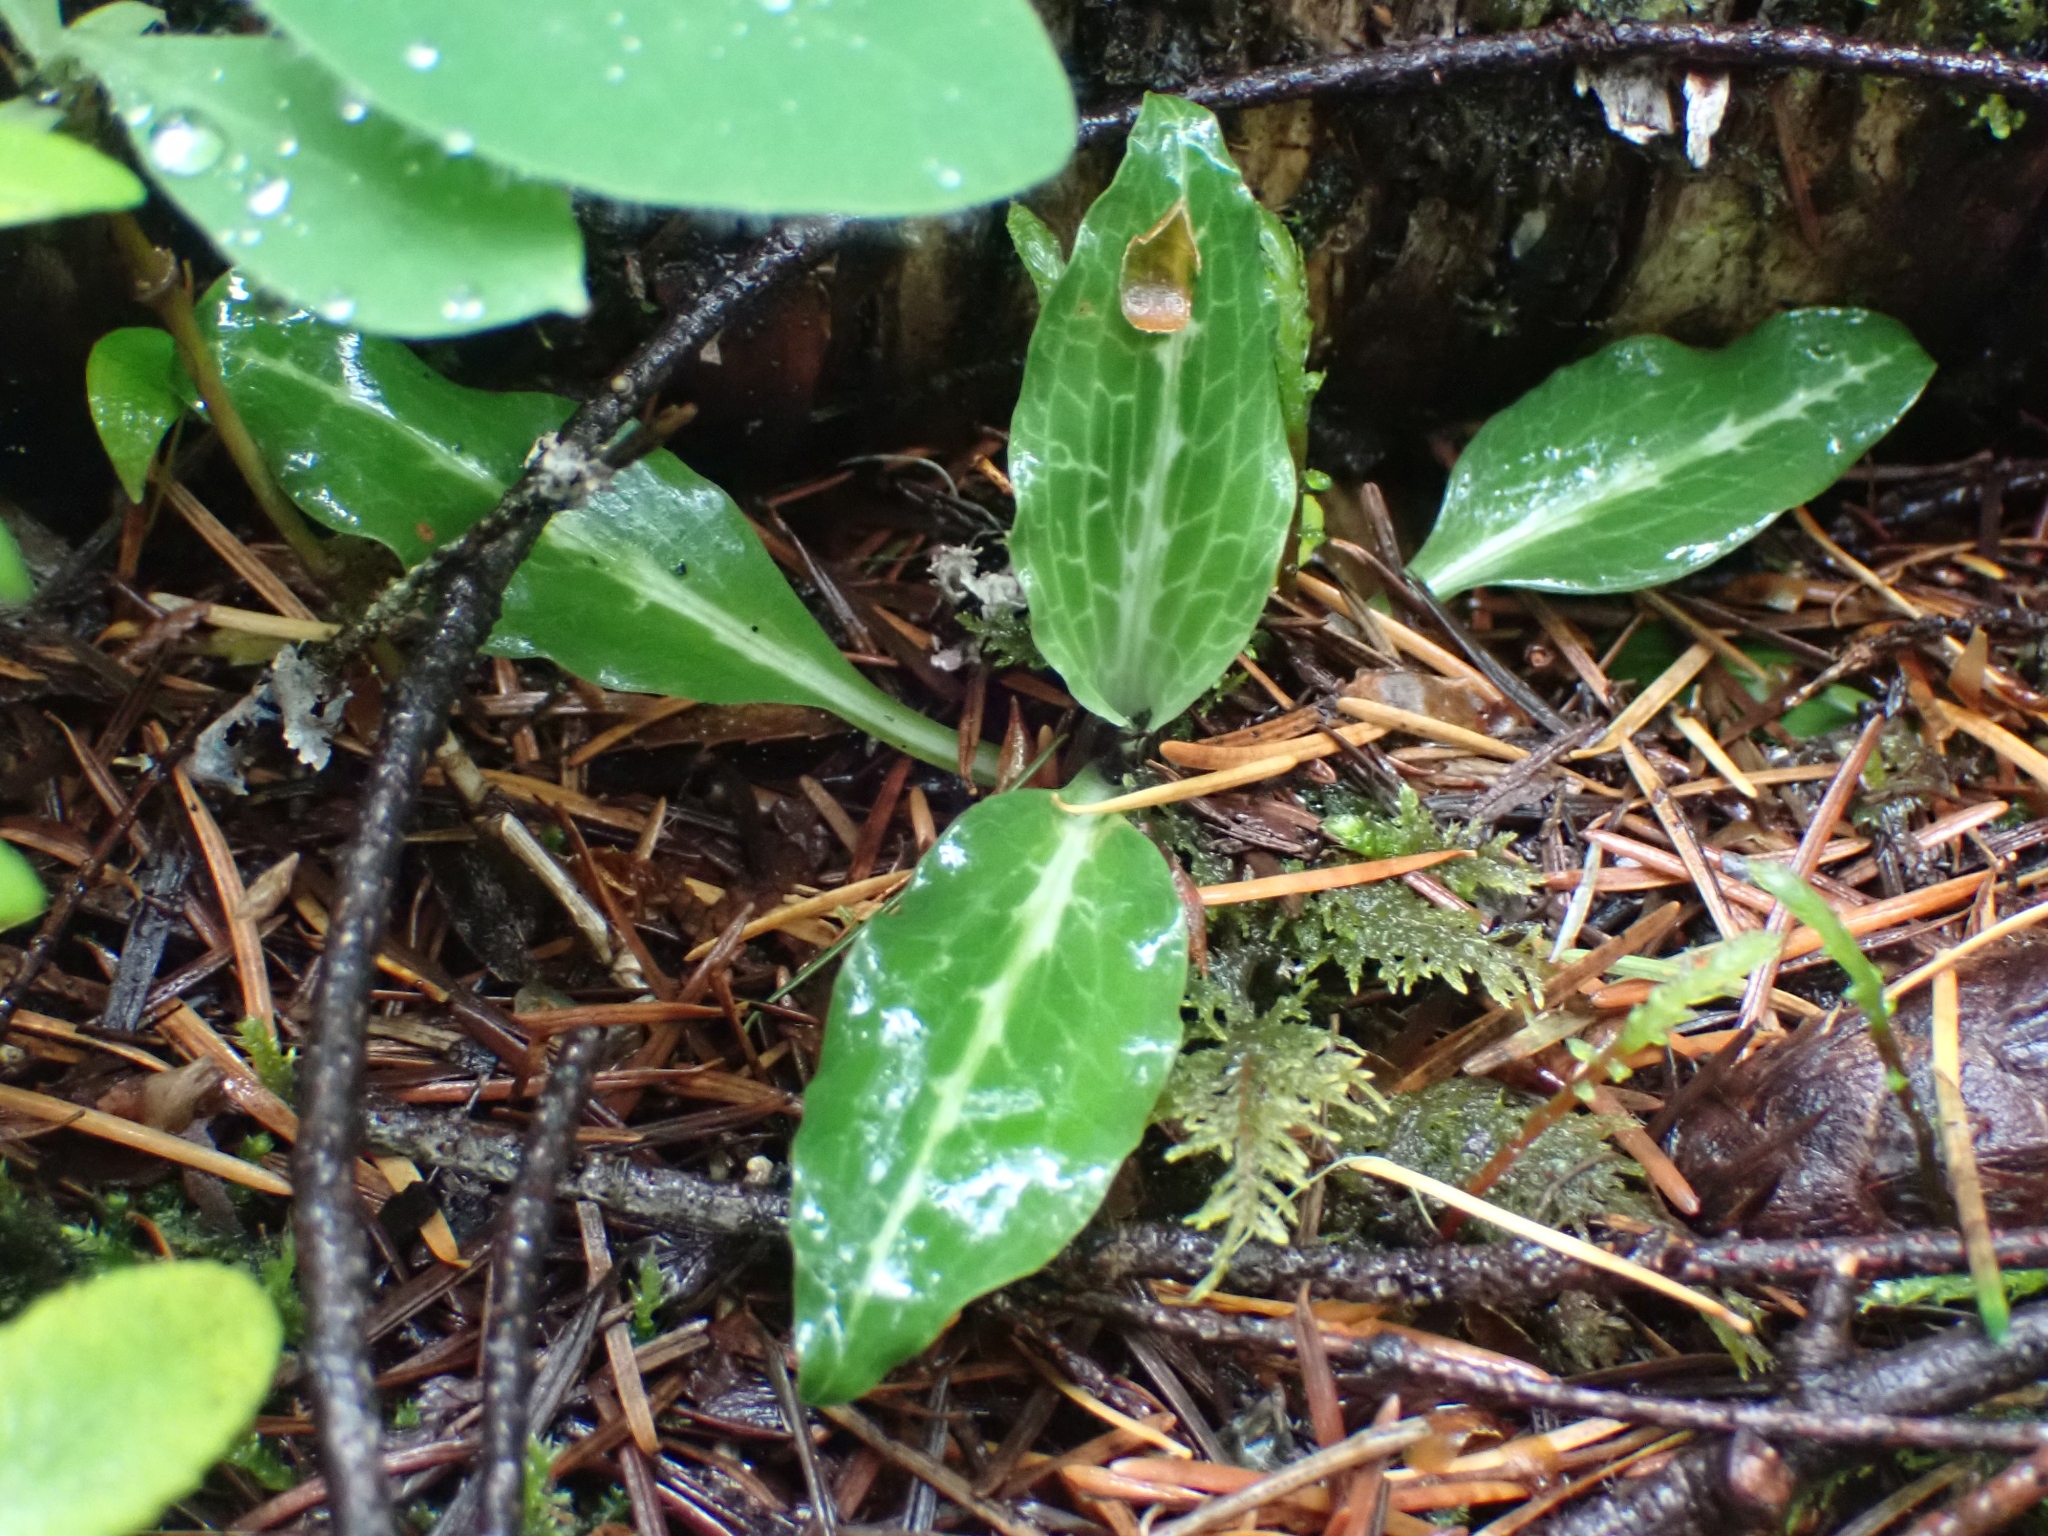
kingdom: Plantae
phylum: Tracheophyta
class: Liliopsida
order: Asparagales
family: Orchidaceae
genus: Goodyera
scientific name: Goodyera oblongifolia
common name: Giant rattlesnake-plantain
